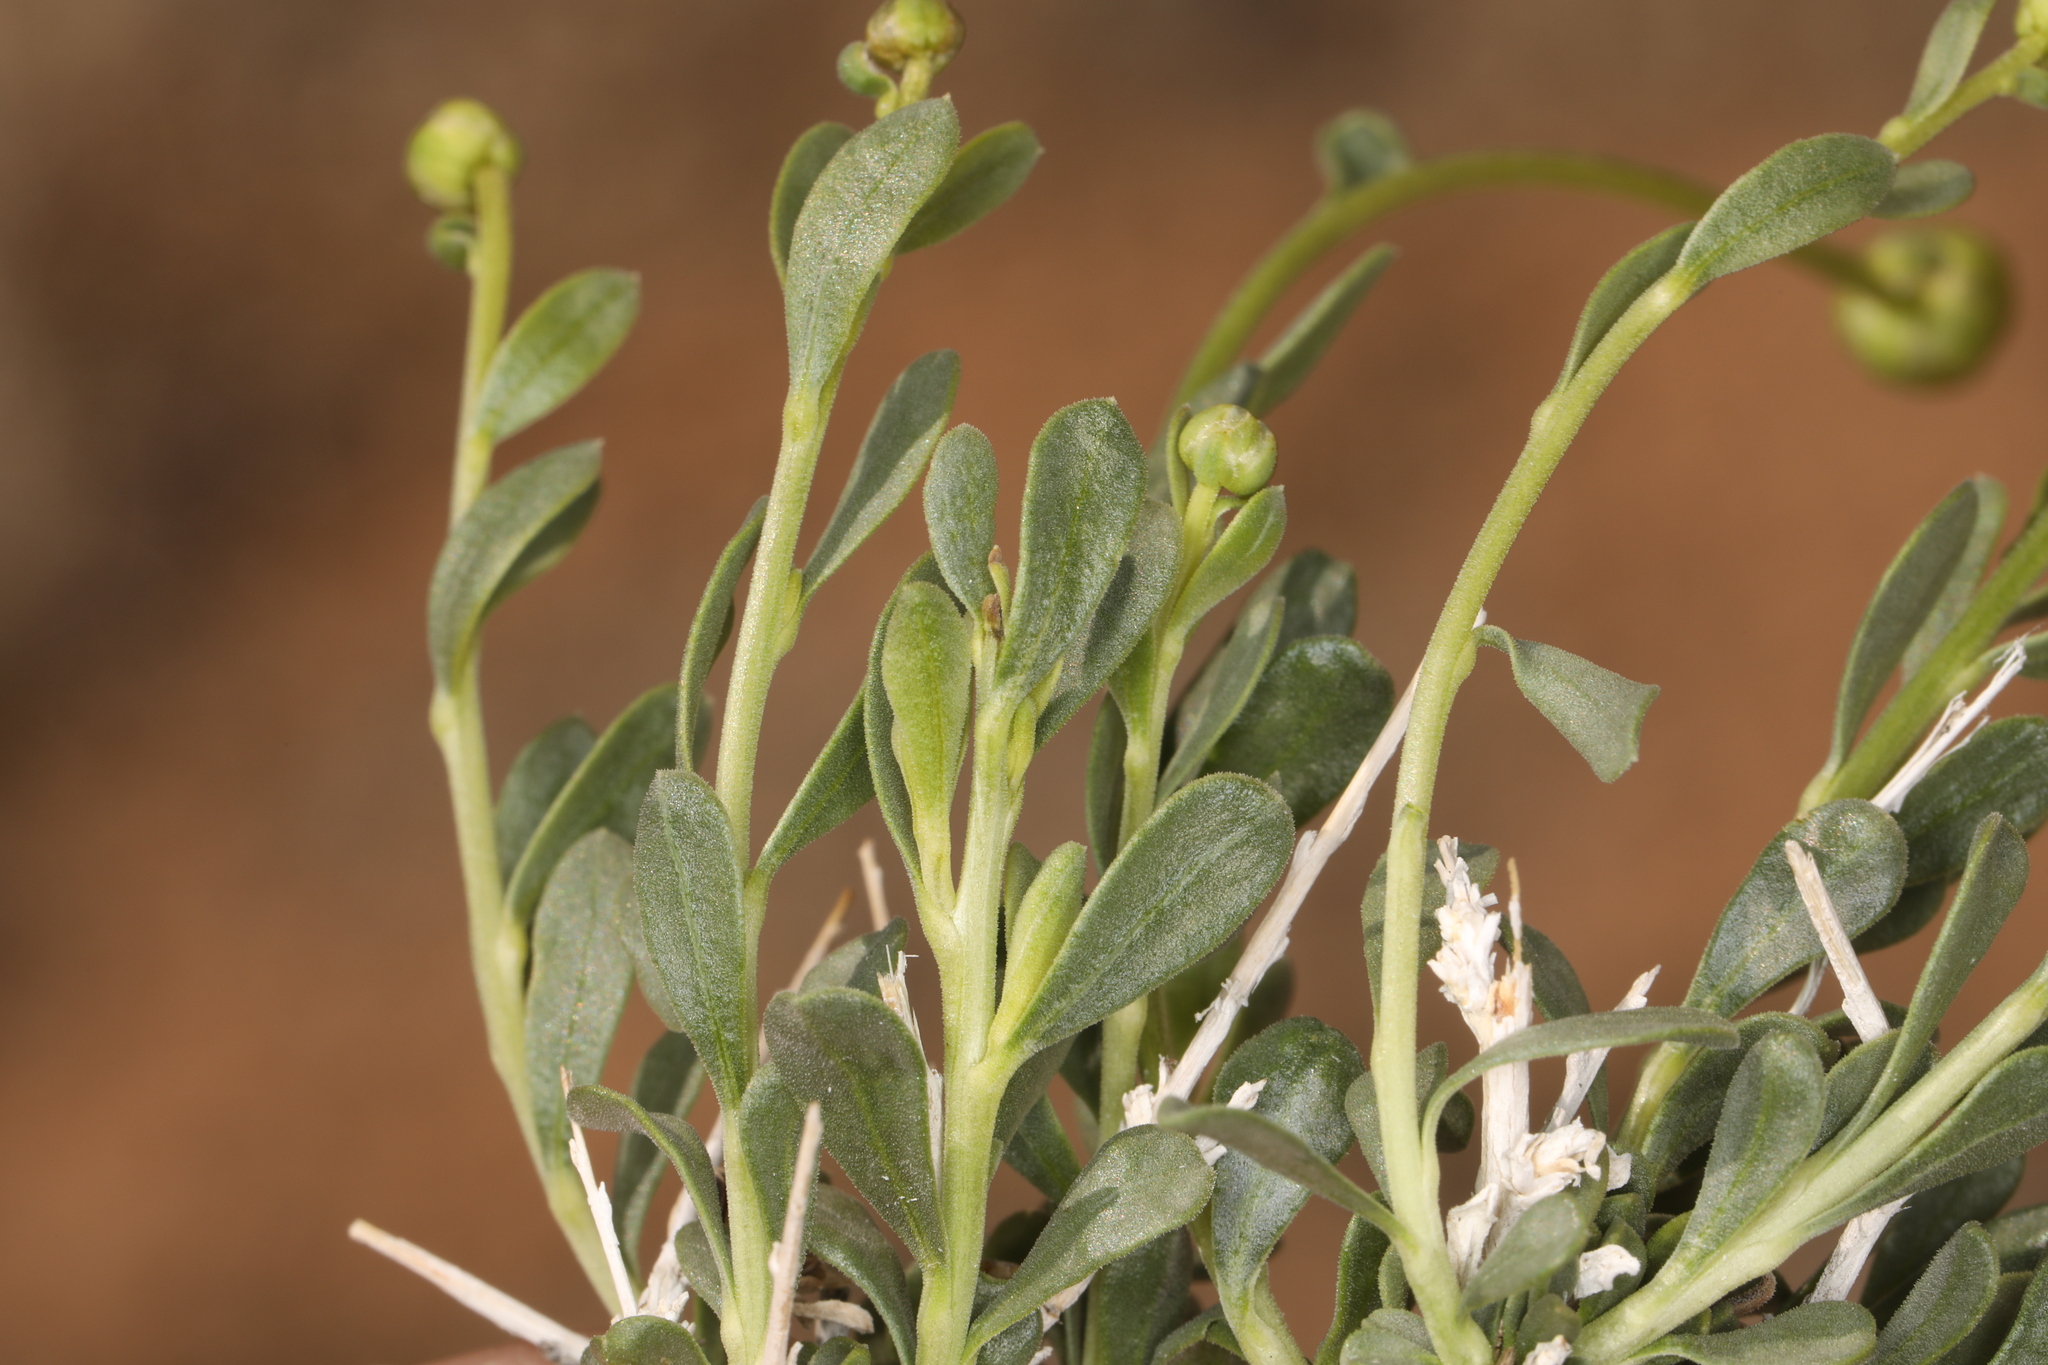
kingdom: Plantae
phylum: Tracheophyta
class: Magnoliopsida
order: Asterales
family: Asteraceae
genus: Acamptopappus
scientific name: Acamptopappus shockleyi
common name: Shockley's goldenhead
